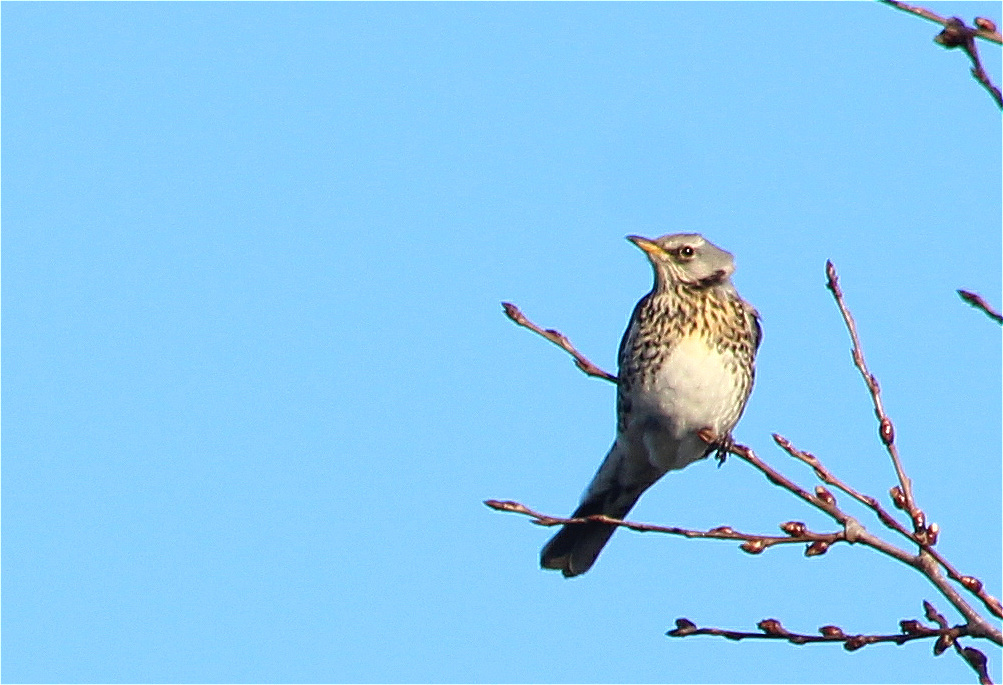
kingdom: Animalia
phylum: Chordata
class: Aves
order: Passeriformes
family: Turdidae
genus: Turdus
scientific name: Turdus pilaris
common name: Fieldfare
